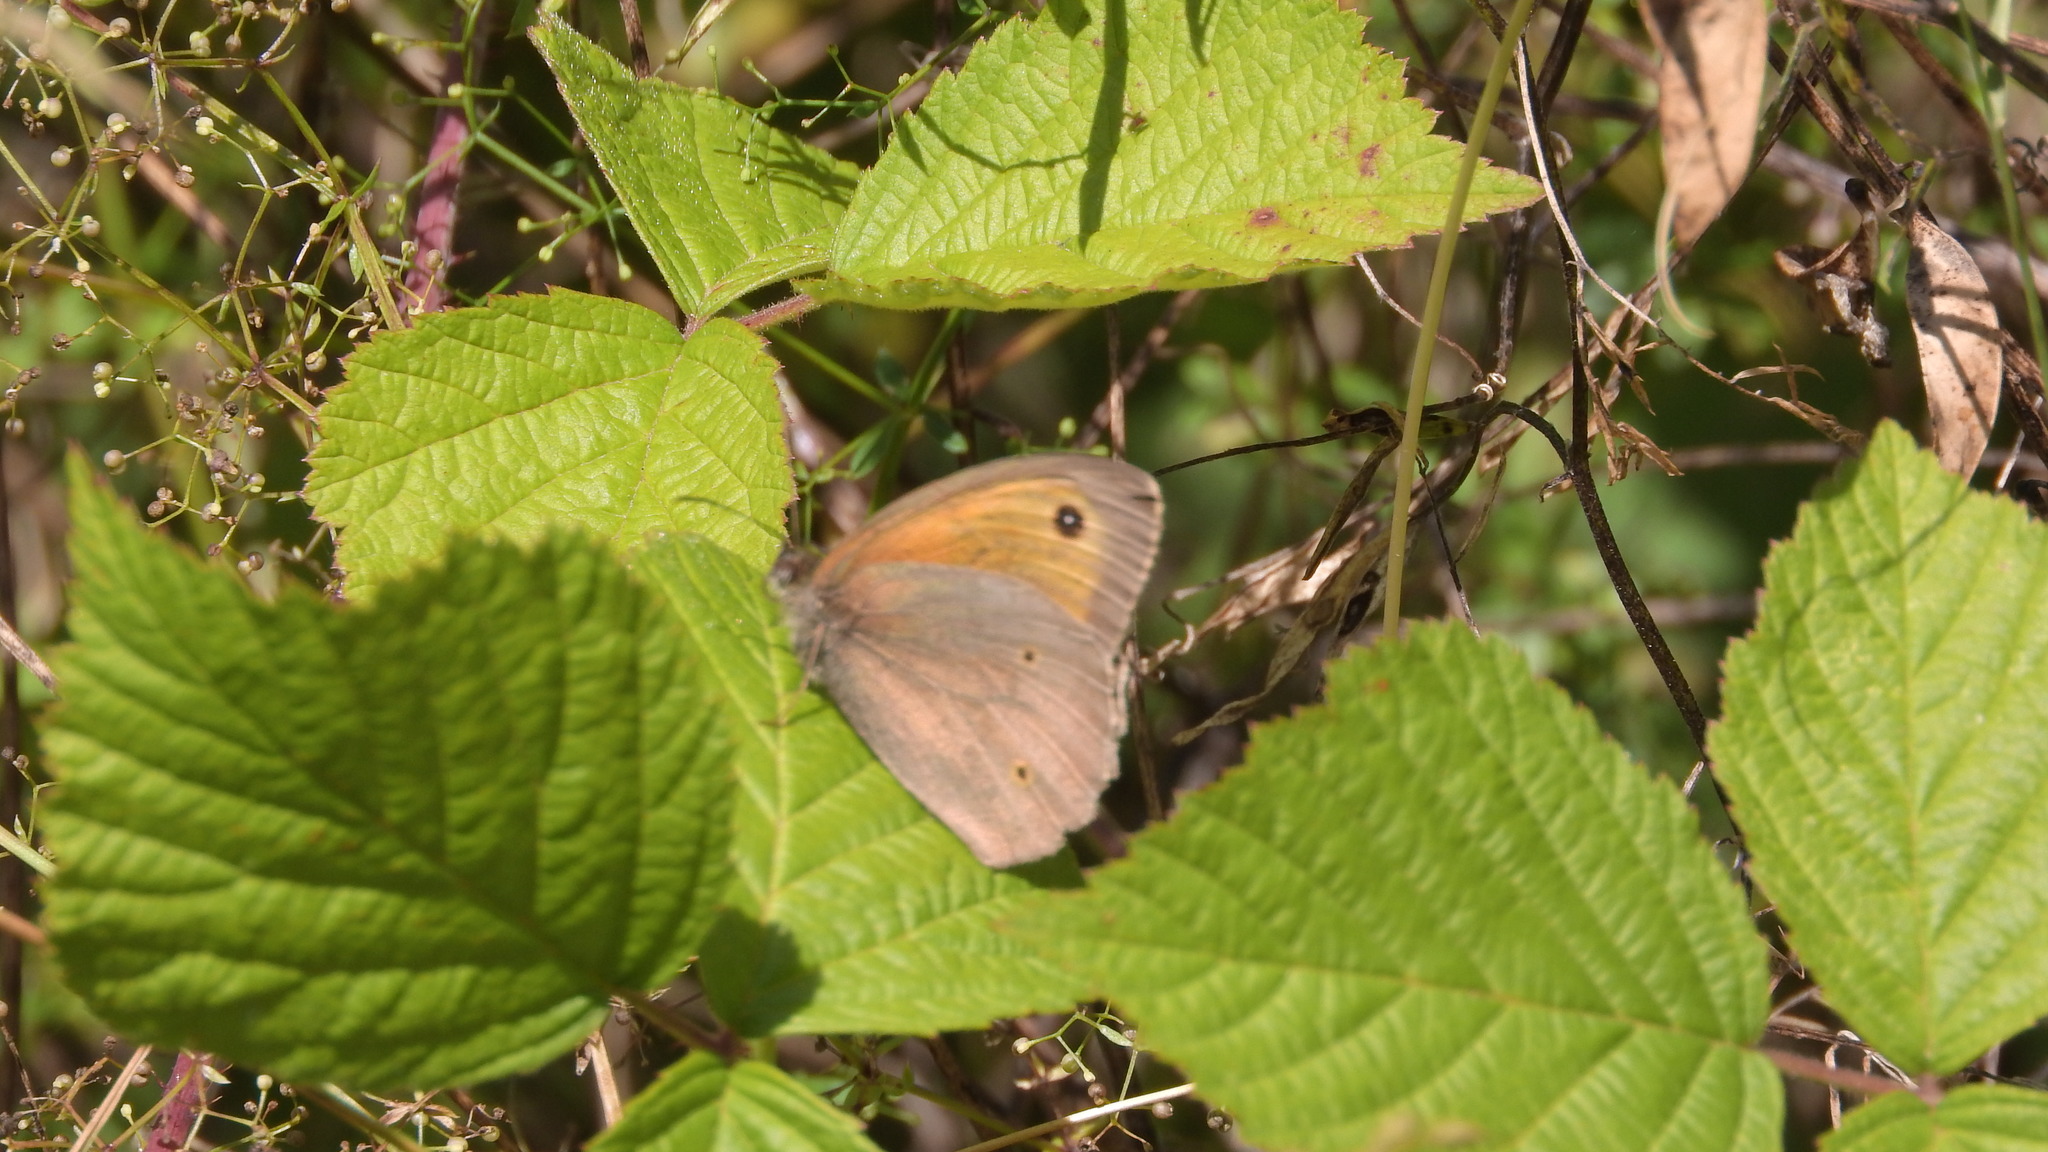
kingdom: Animalia
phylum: Arthropoda
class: Insecta
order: Lepidoptera
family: Nymphalidae
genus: Maniola
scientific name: Maniola jurtina
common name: Meadow brown
